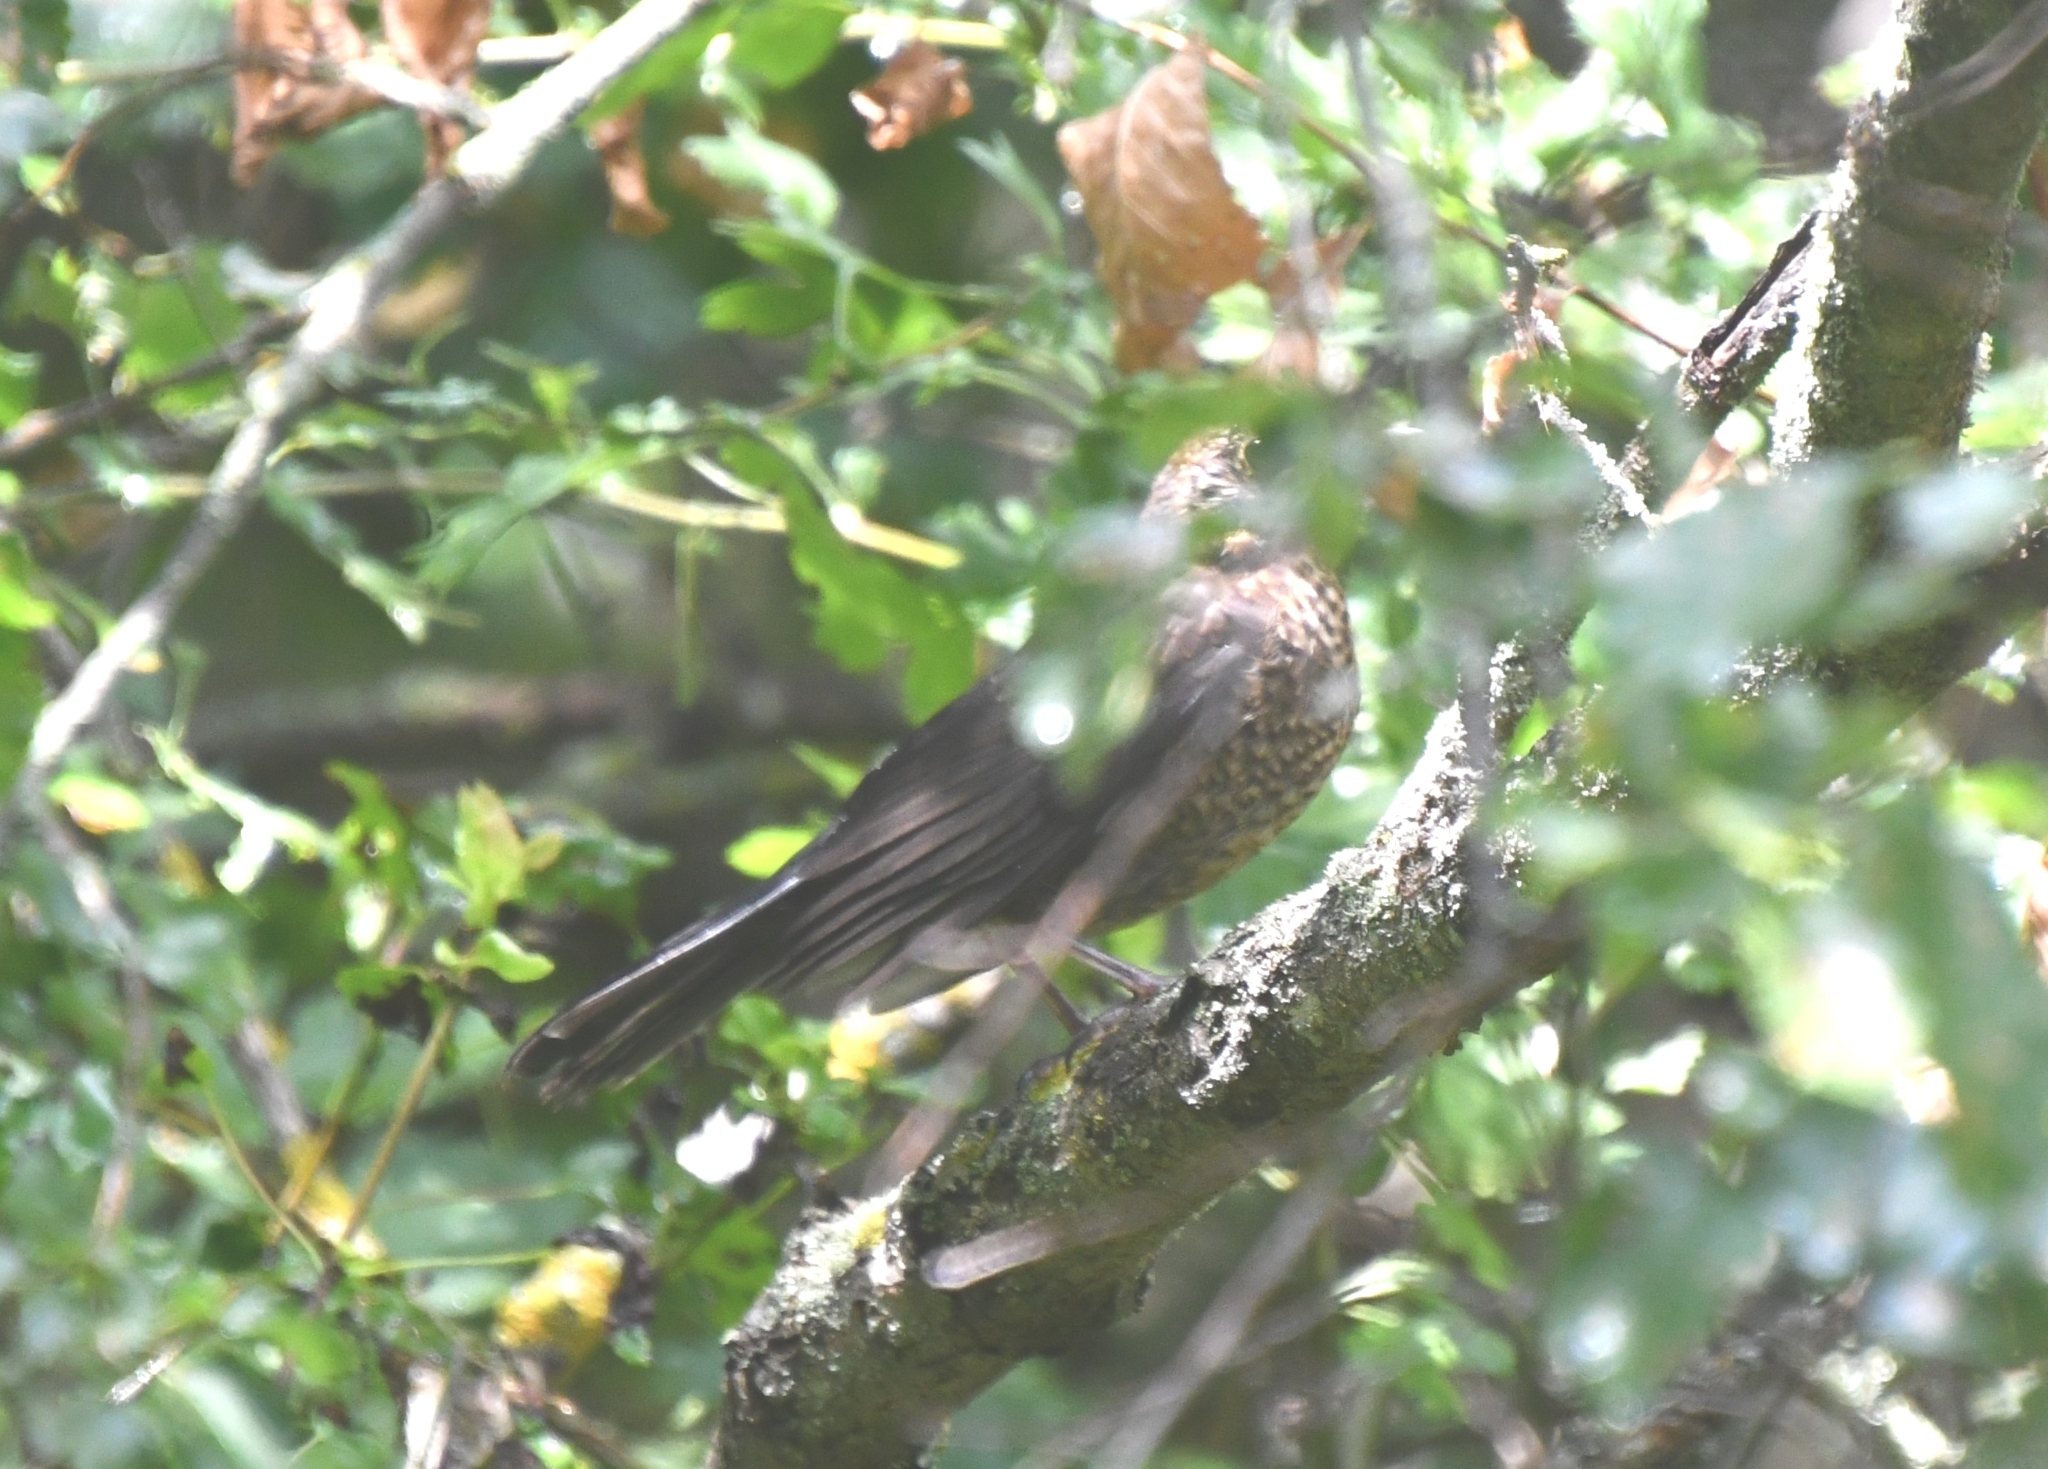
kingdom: Animalia
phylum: Chordata
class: Aves
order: Passeriformes
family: Turdidae
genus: Turdus
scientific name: Turdus merula
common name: Common blackbird
